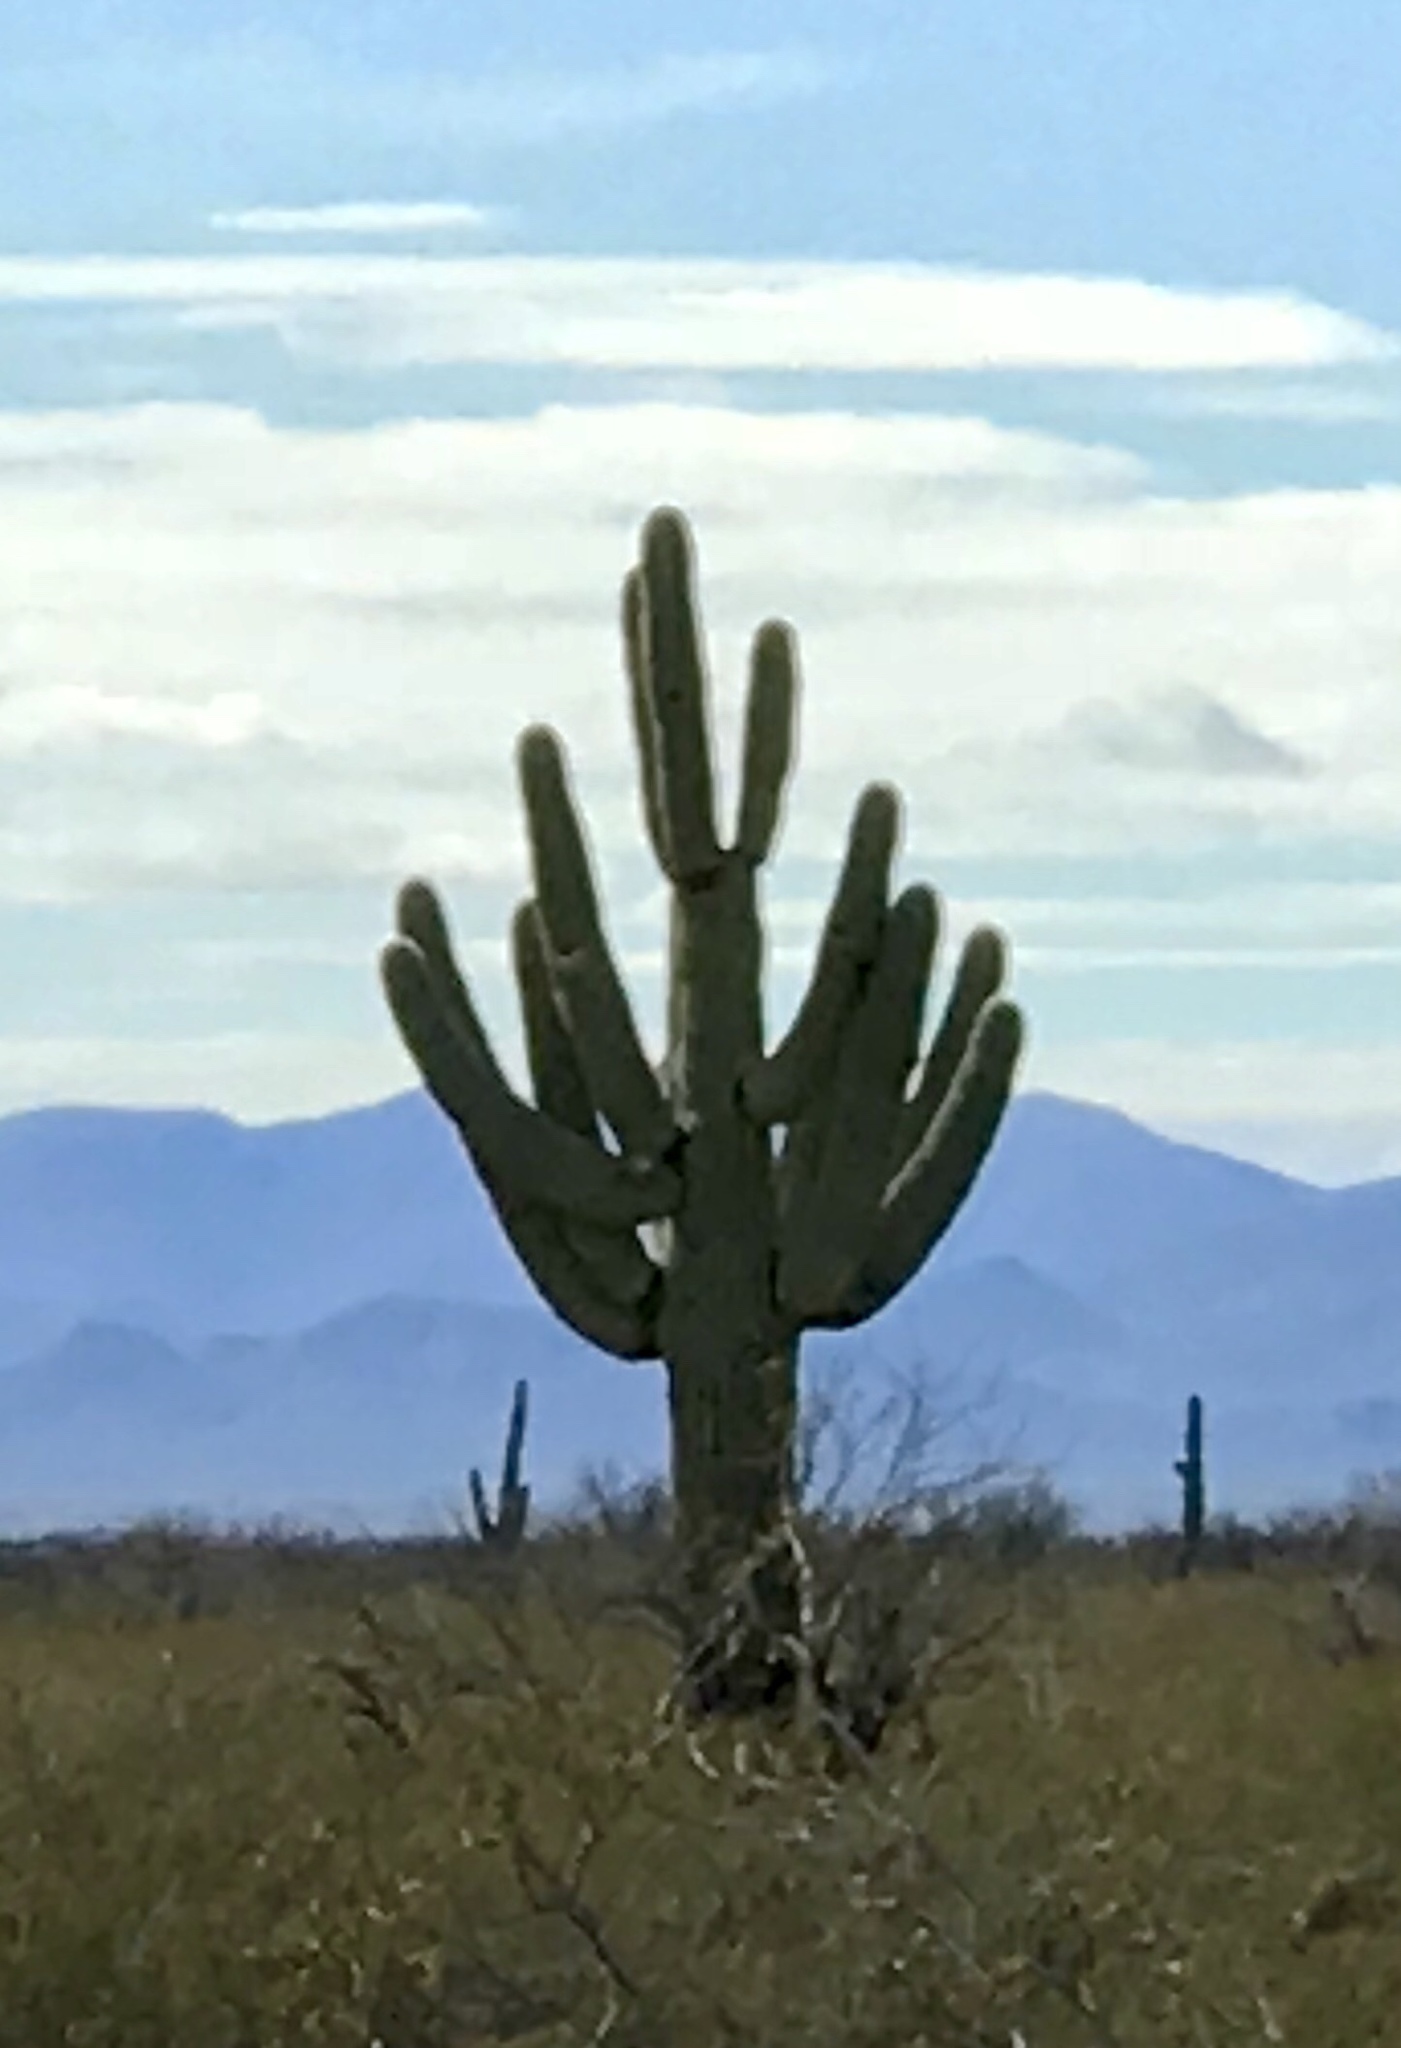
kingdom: Plantae
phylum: Tracheophyta
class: Magnoliopsida
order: Caryophyllales
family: Cactaceae
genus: Carnegiea
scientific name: Carnegiea gigantea
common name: Saguaro
